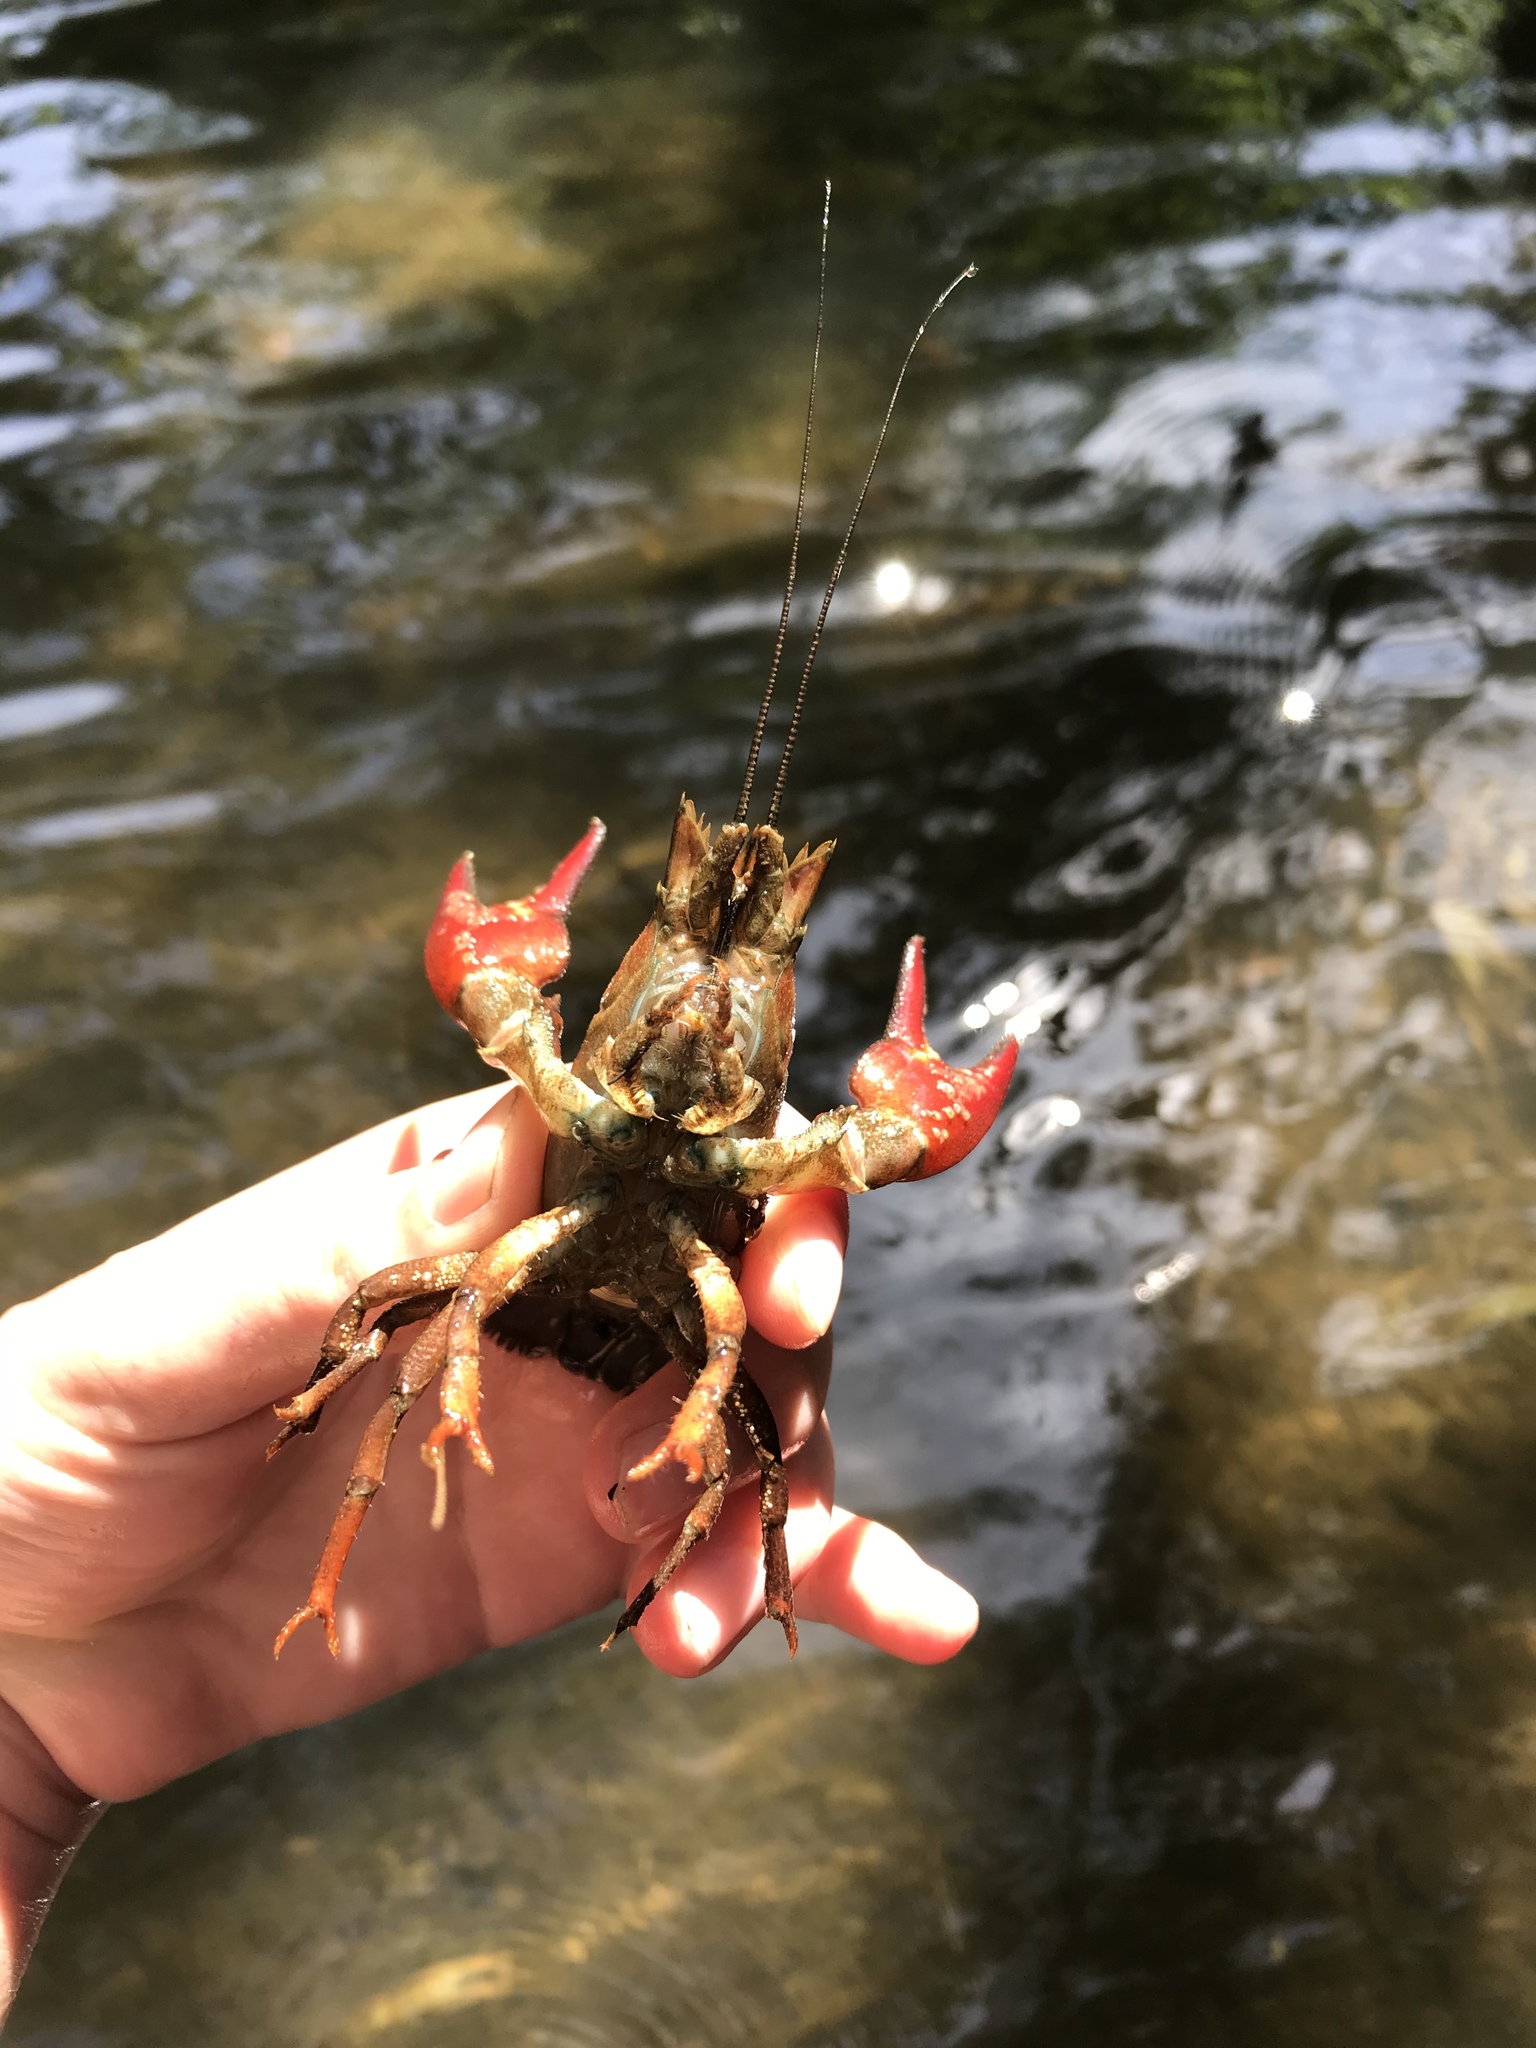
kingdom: Animalia
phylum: Arthropoda
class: Malacostraca
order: Decapoda
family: Astacidae
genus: Pacifastacus
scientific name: Pacifastacus leniusculus
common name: Signal crayfish
